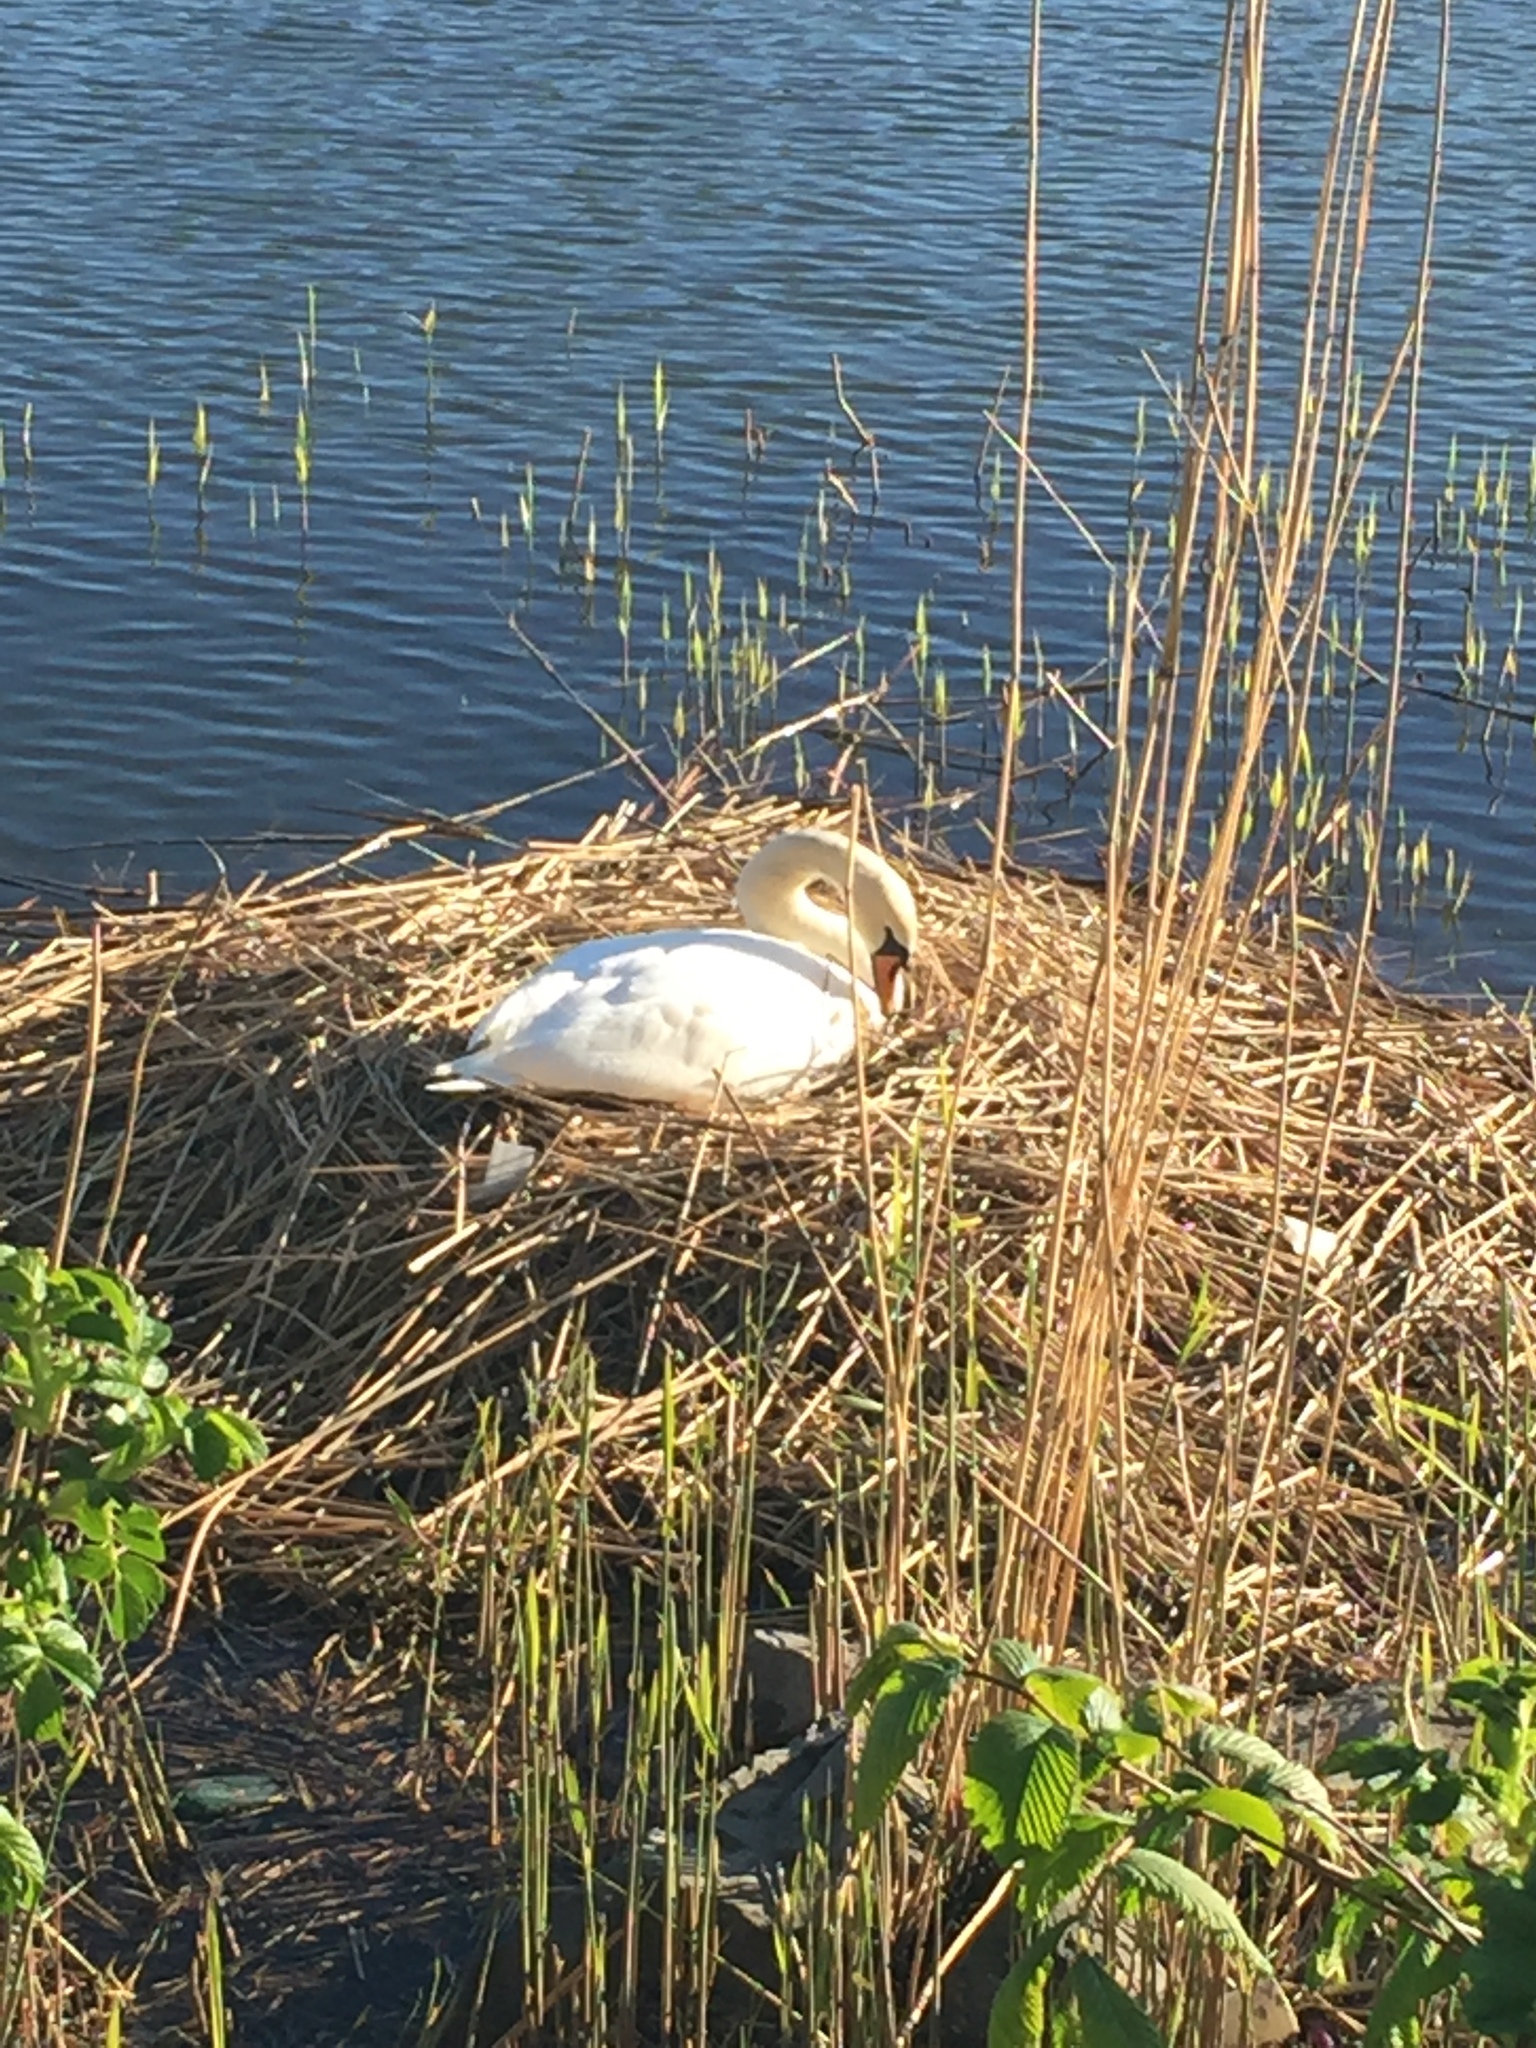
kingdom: Animalia
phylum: Chordata
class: Aves
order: Anseriformes
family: Anatidae
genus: Cygnus
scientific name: Cygnus olor
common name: Mute swan
